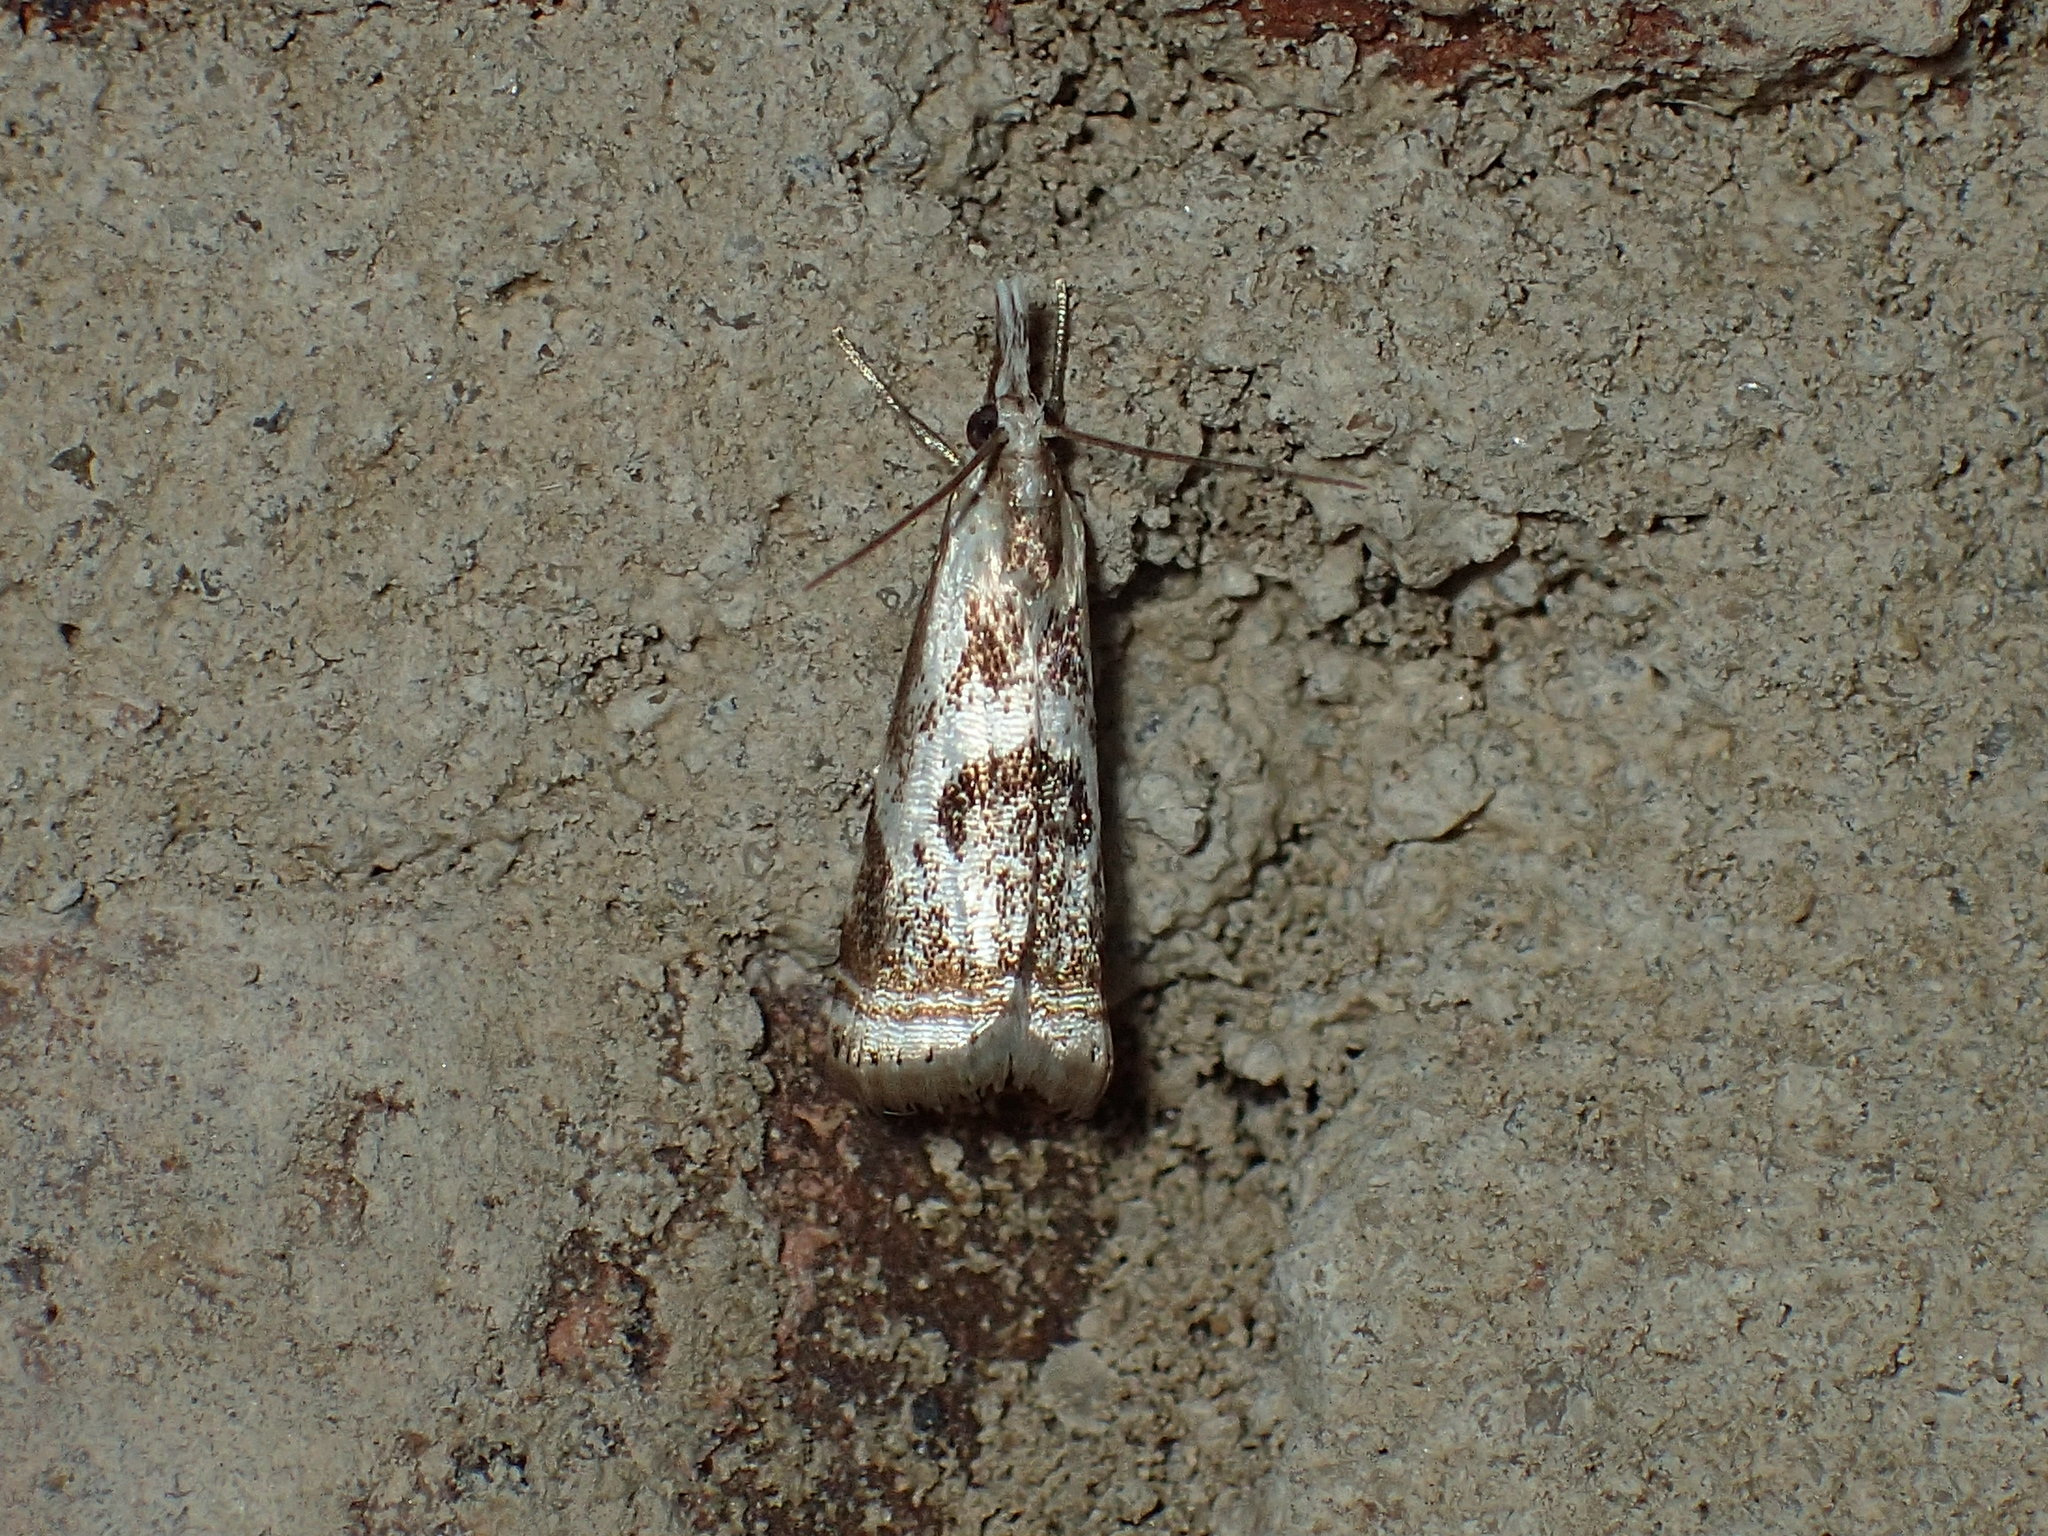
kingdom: Animalia
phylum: Arthropoda
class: Insecta
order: Lepidoptera
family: Crambidae
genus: Microcrambus
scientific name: Microcrambus elegans
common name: Elegant grass-veneer
